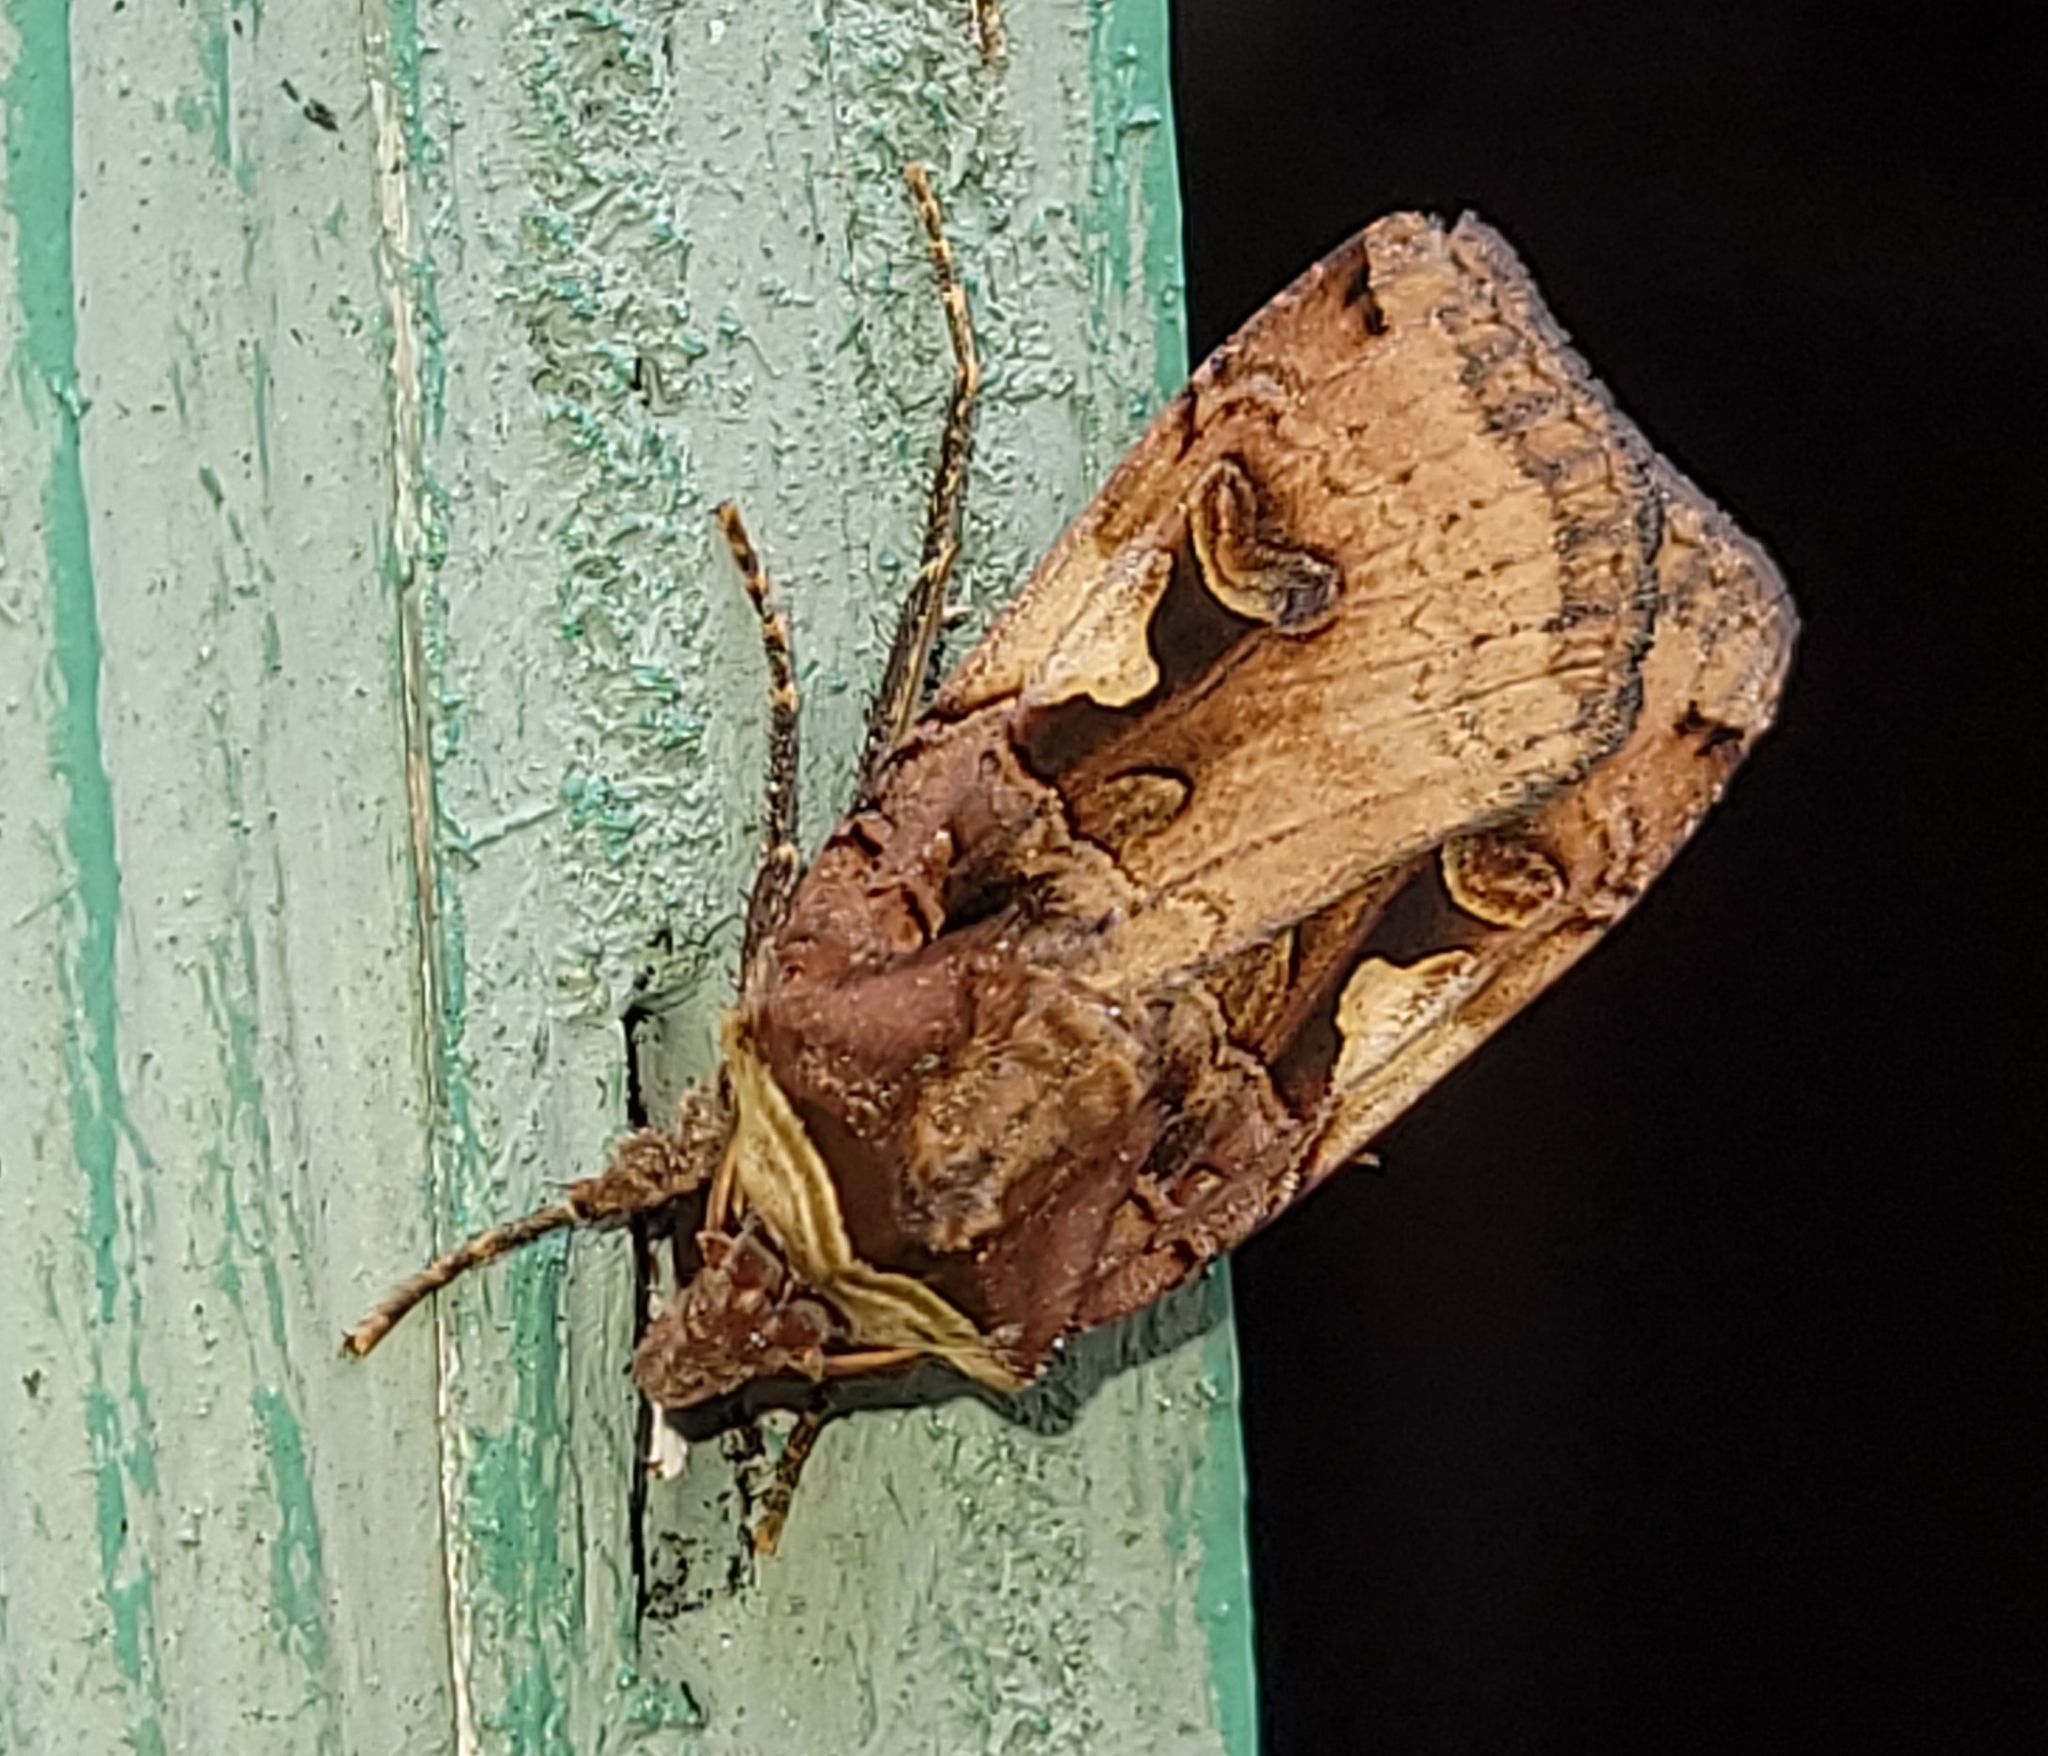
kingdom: Animalia
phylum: Arthropoda
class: Insecta
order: Lepidoptera
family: Noctuidae
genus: Noctua
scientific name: Noctua pronuba
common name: Large yellow underwing
